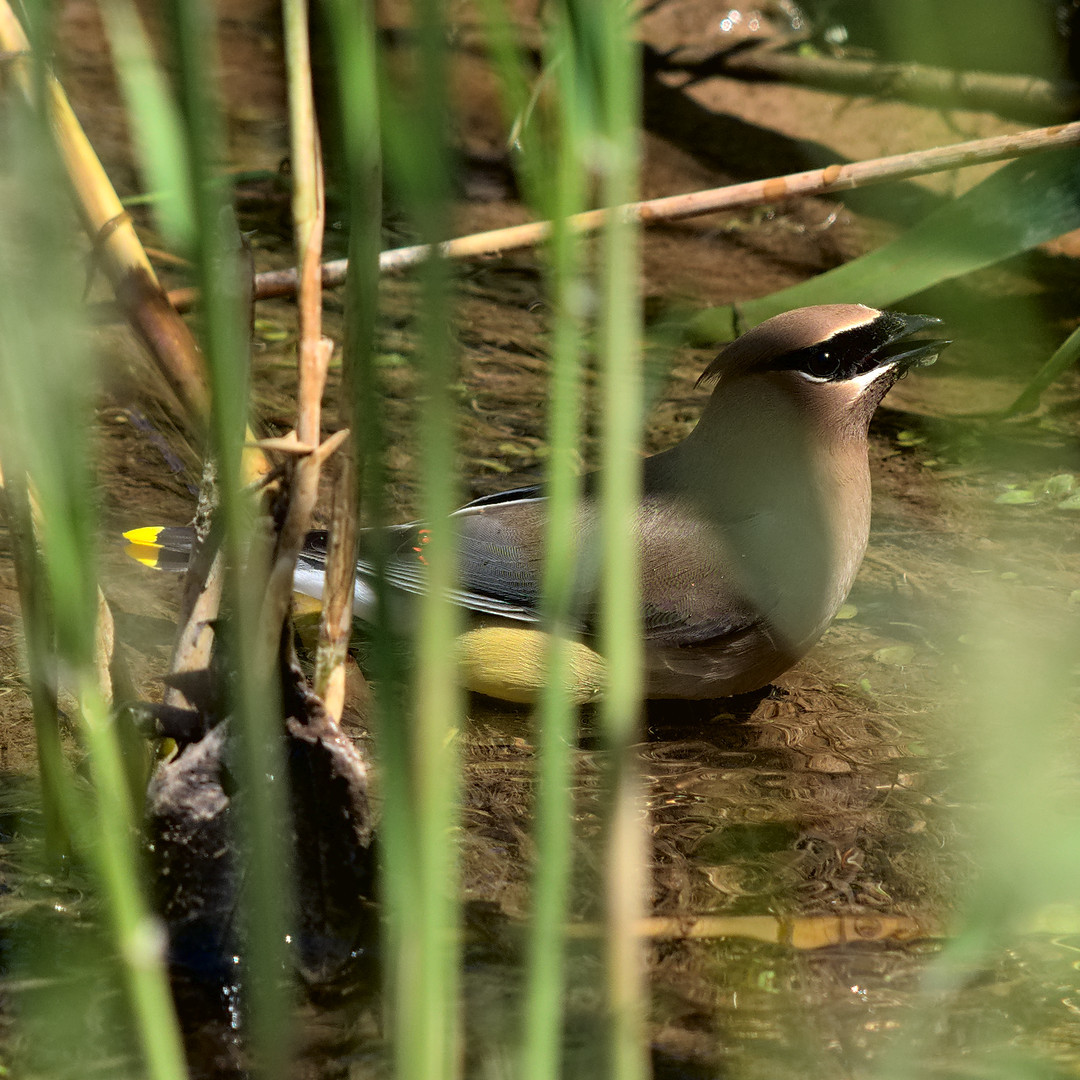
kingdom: Animalia
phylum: Chordata
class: Aves
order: Passeriformes
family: Bombycillidae
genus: Bombycilla
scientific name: Bombycilla cedrorum
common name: Cedar waxwing
